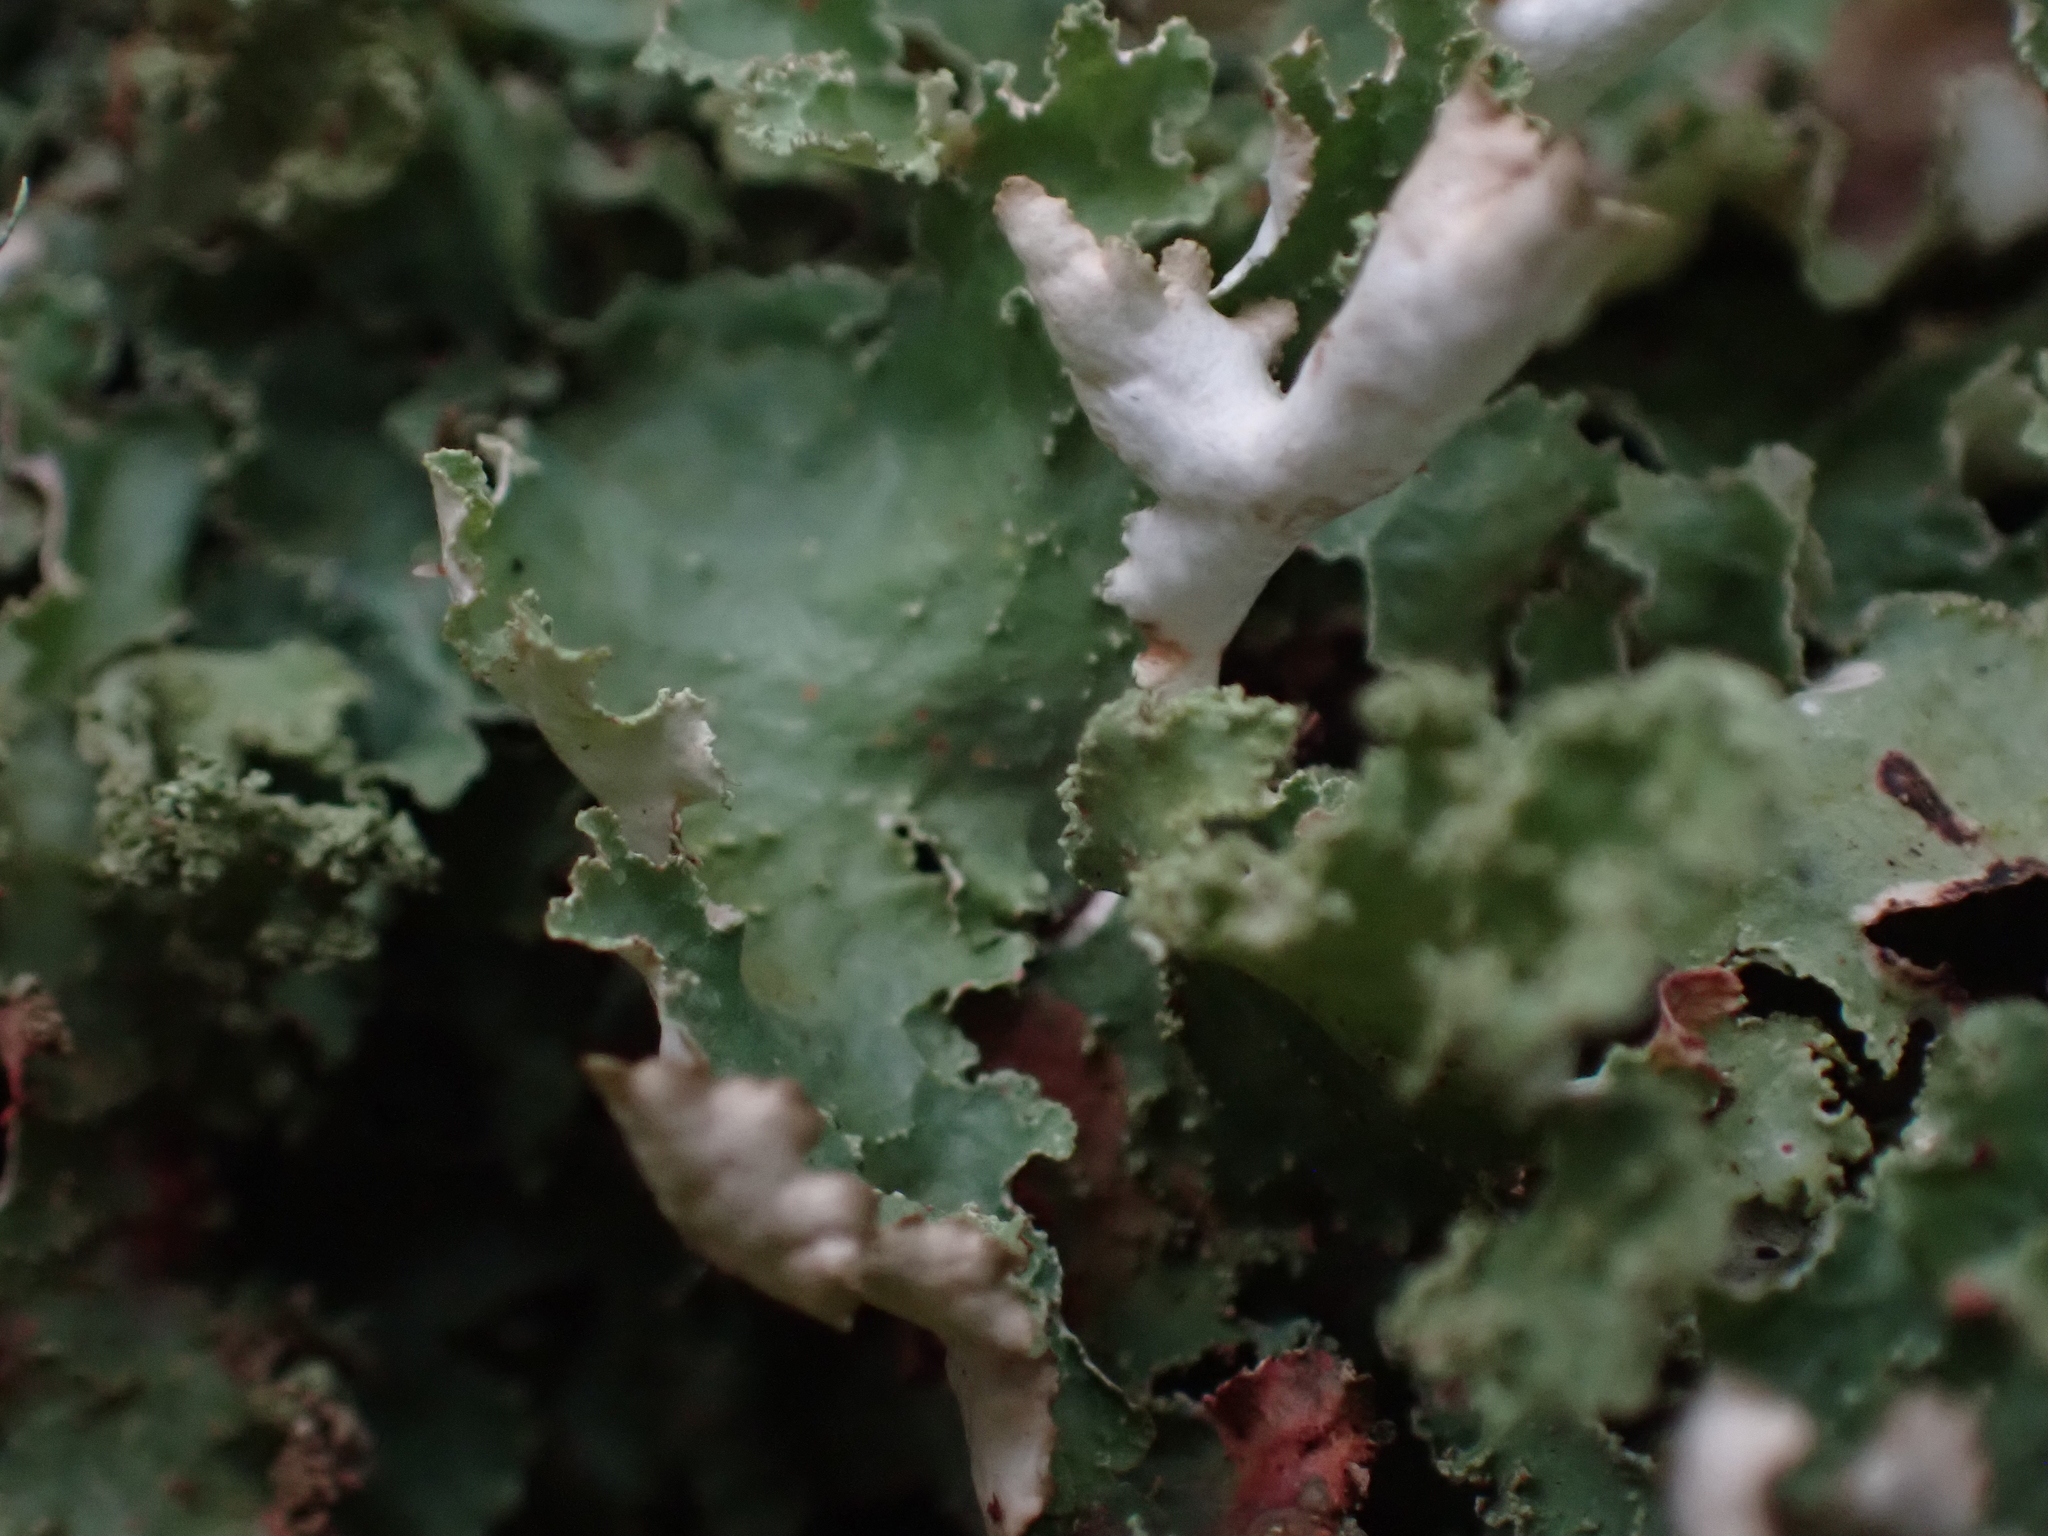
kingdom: Fungi
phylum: Ascomycota
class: Lecanoromycetes
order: Lecanorales
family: Parmeliaceae
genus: Platismatia
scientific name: Platismatia glauca
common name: Varied rag lichen
